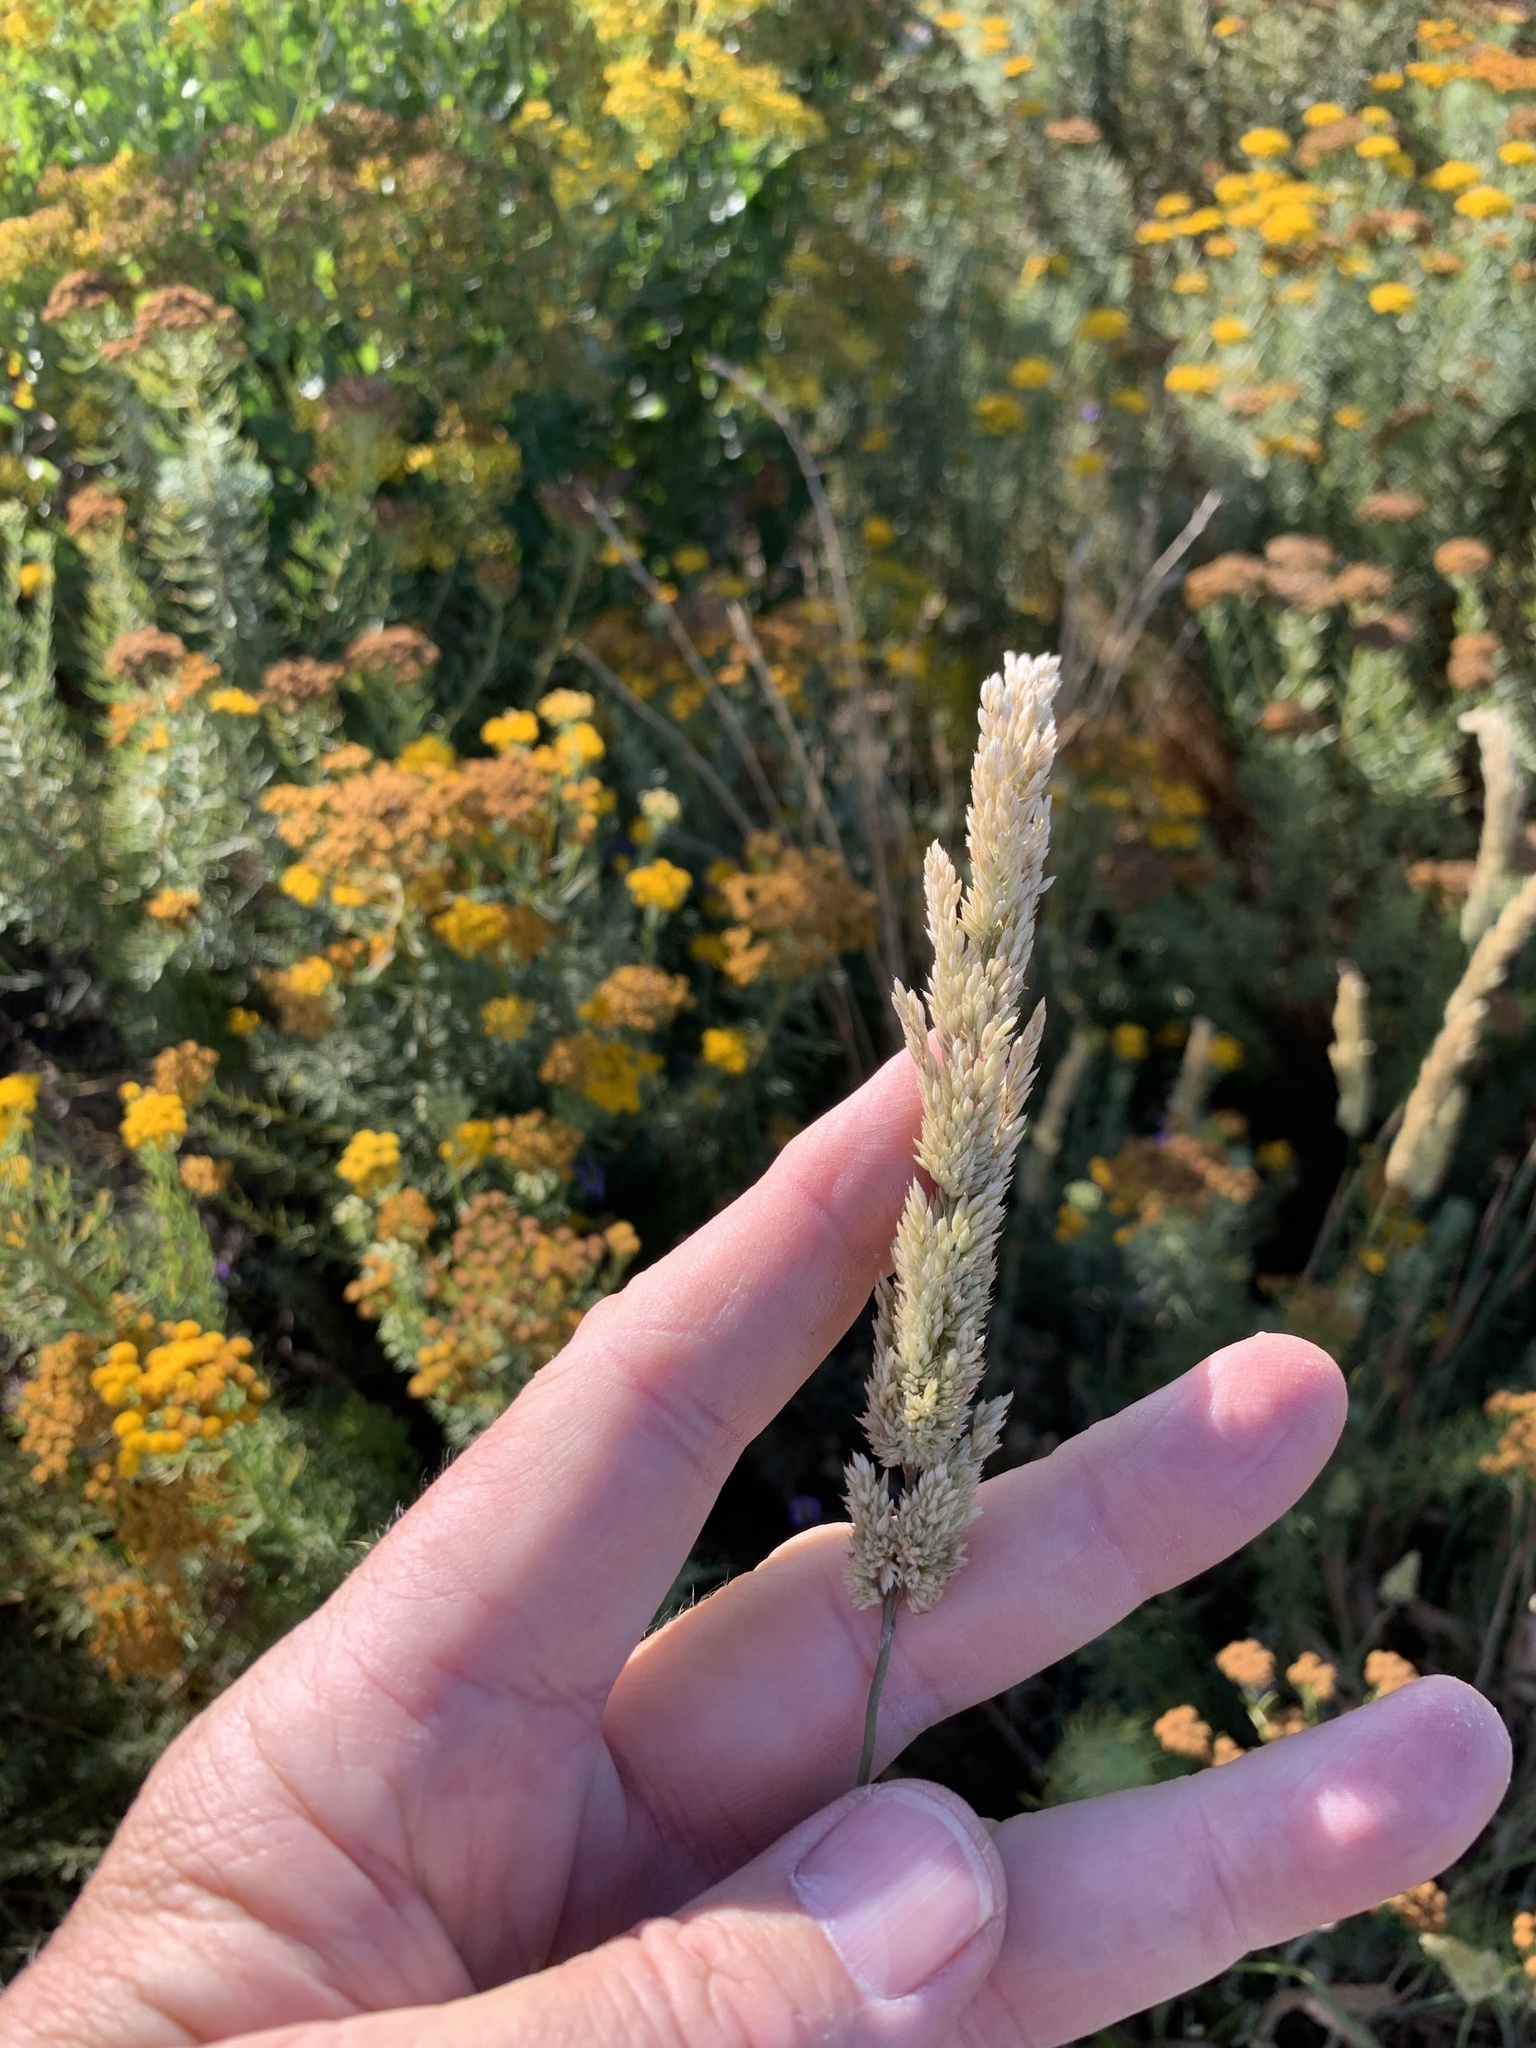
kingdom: Plantae
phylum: Tracheophyta
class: Liliopsida
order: Poales
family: Poaceae
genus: Holcus
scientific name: Holcus lanatus
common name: Yorkshire-fog
